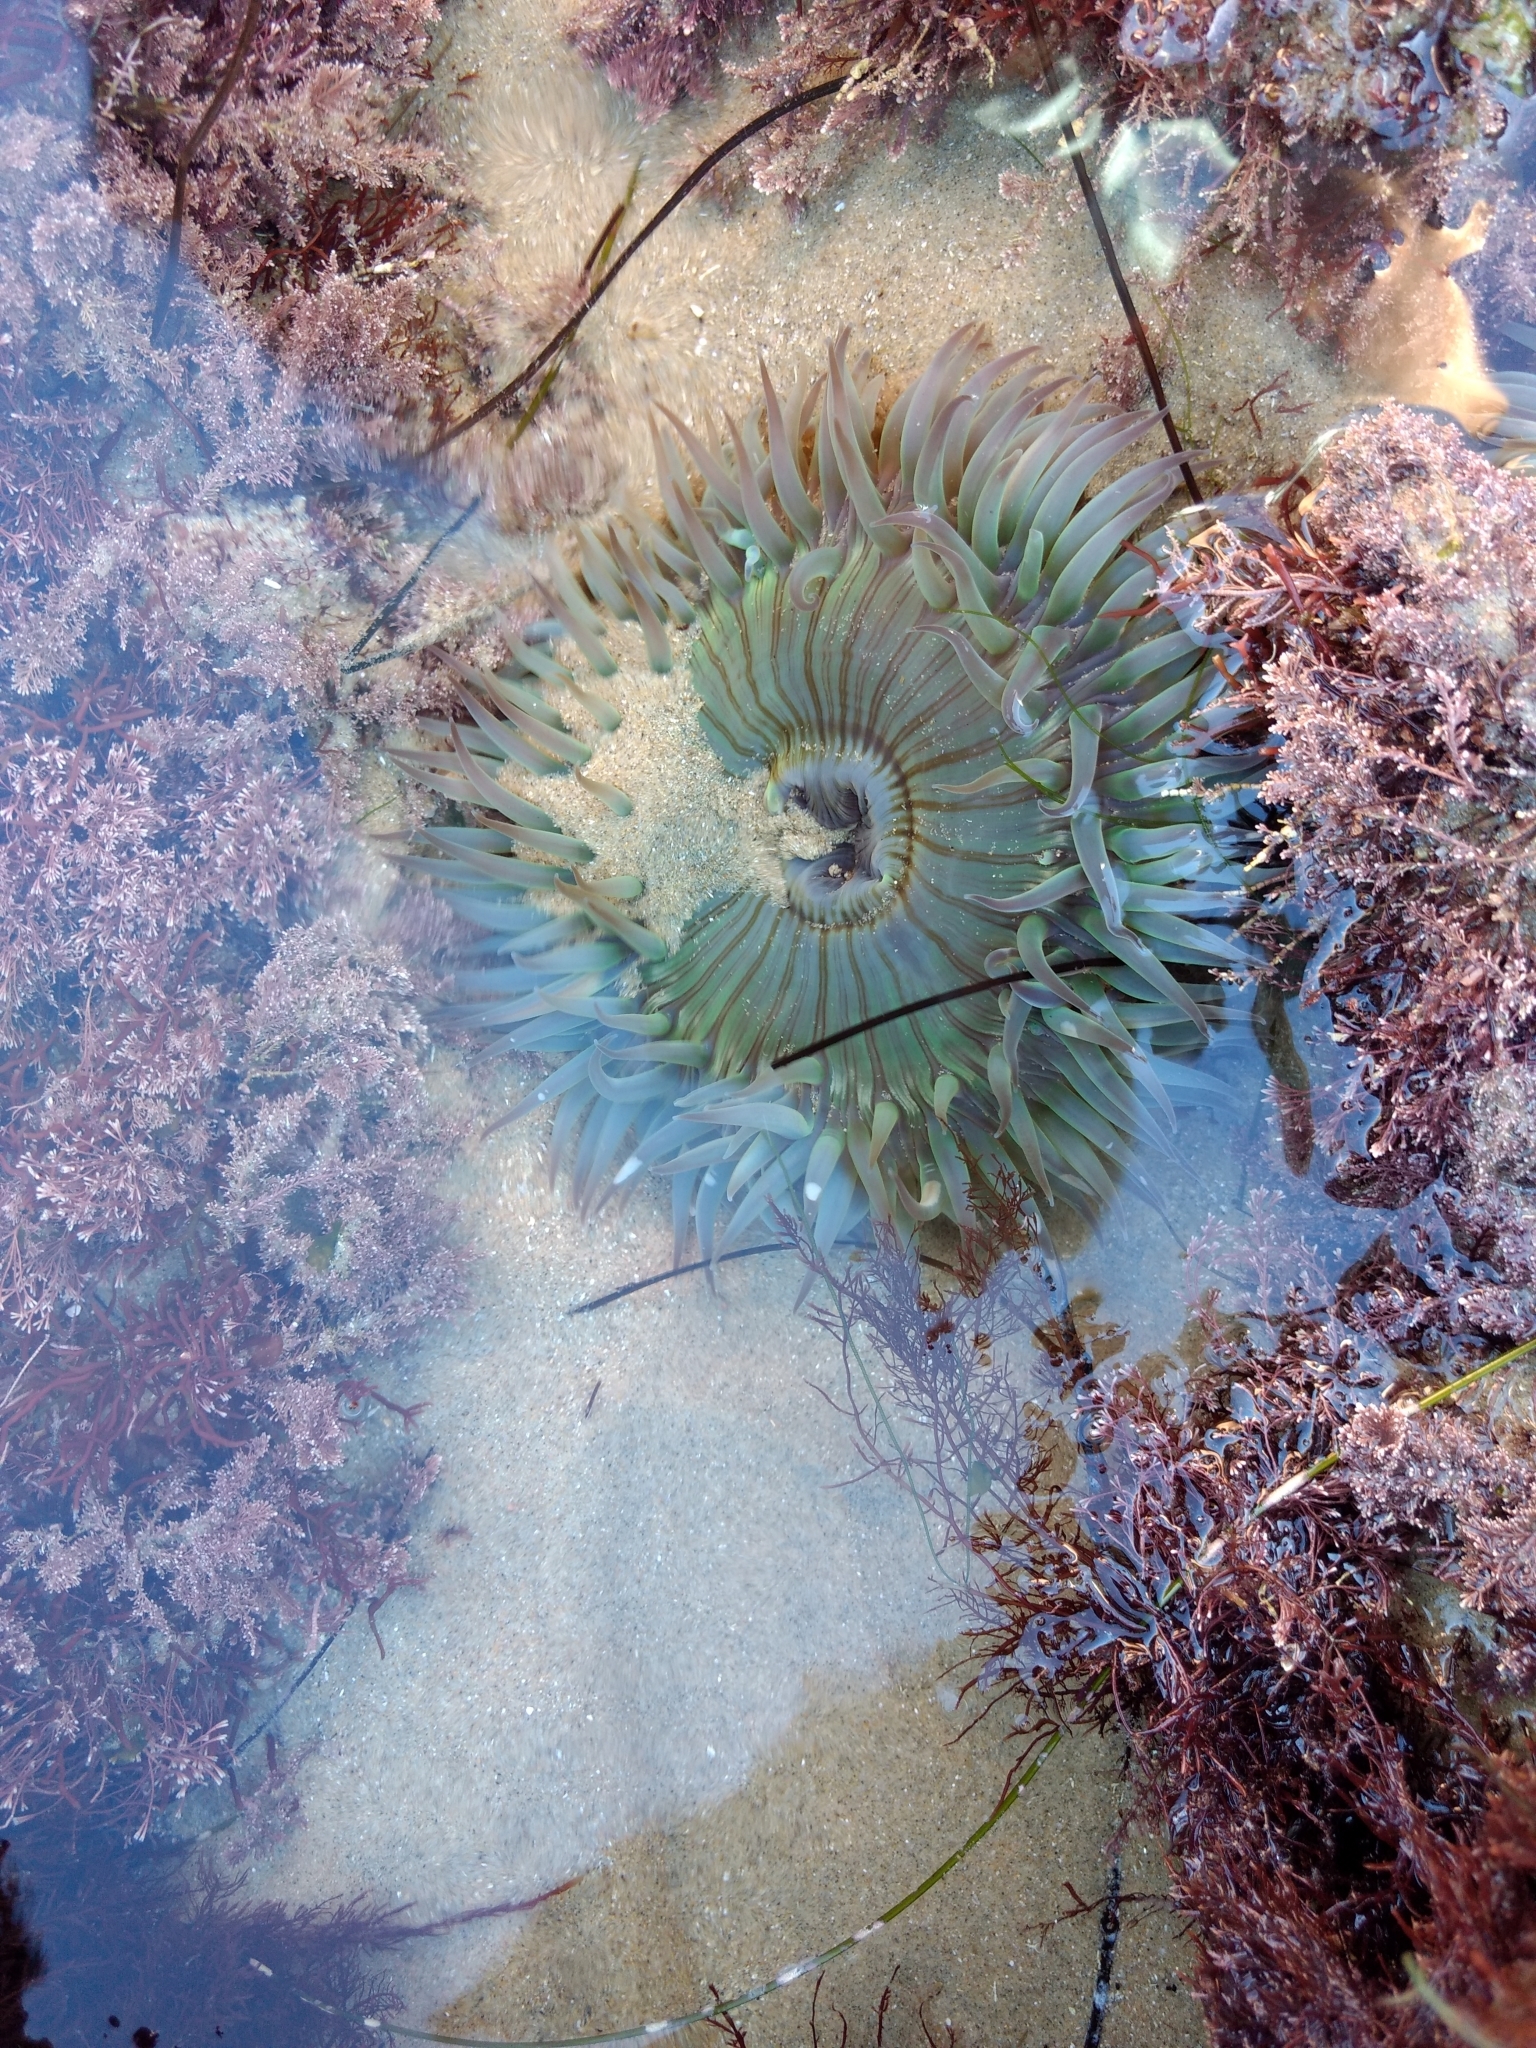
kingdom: Animalia
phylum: Cnidaria
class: Anthozoa
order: Actiniaria
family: Actiniidae
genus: Anthopleura
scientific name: Anthopleura sola
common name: Sun anemone
